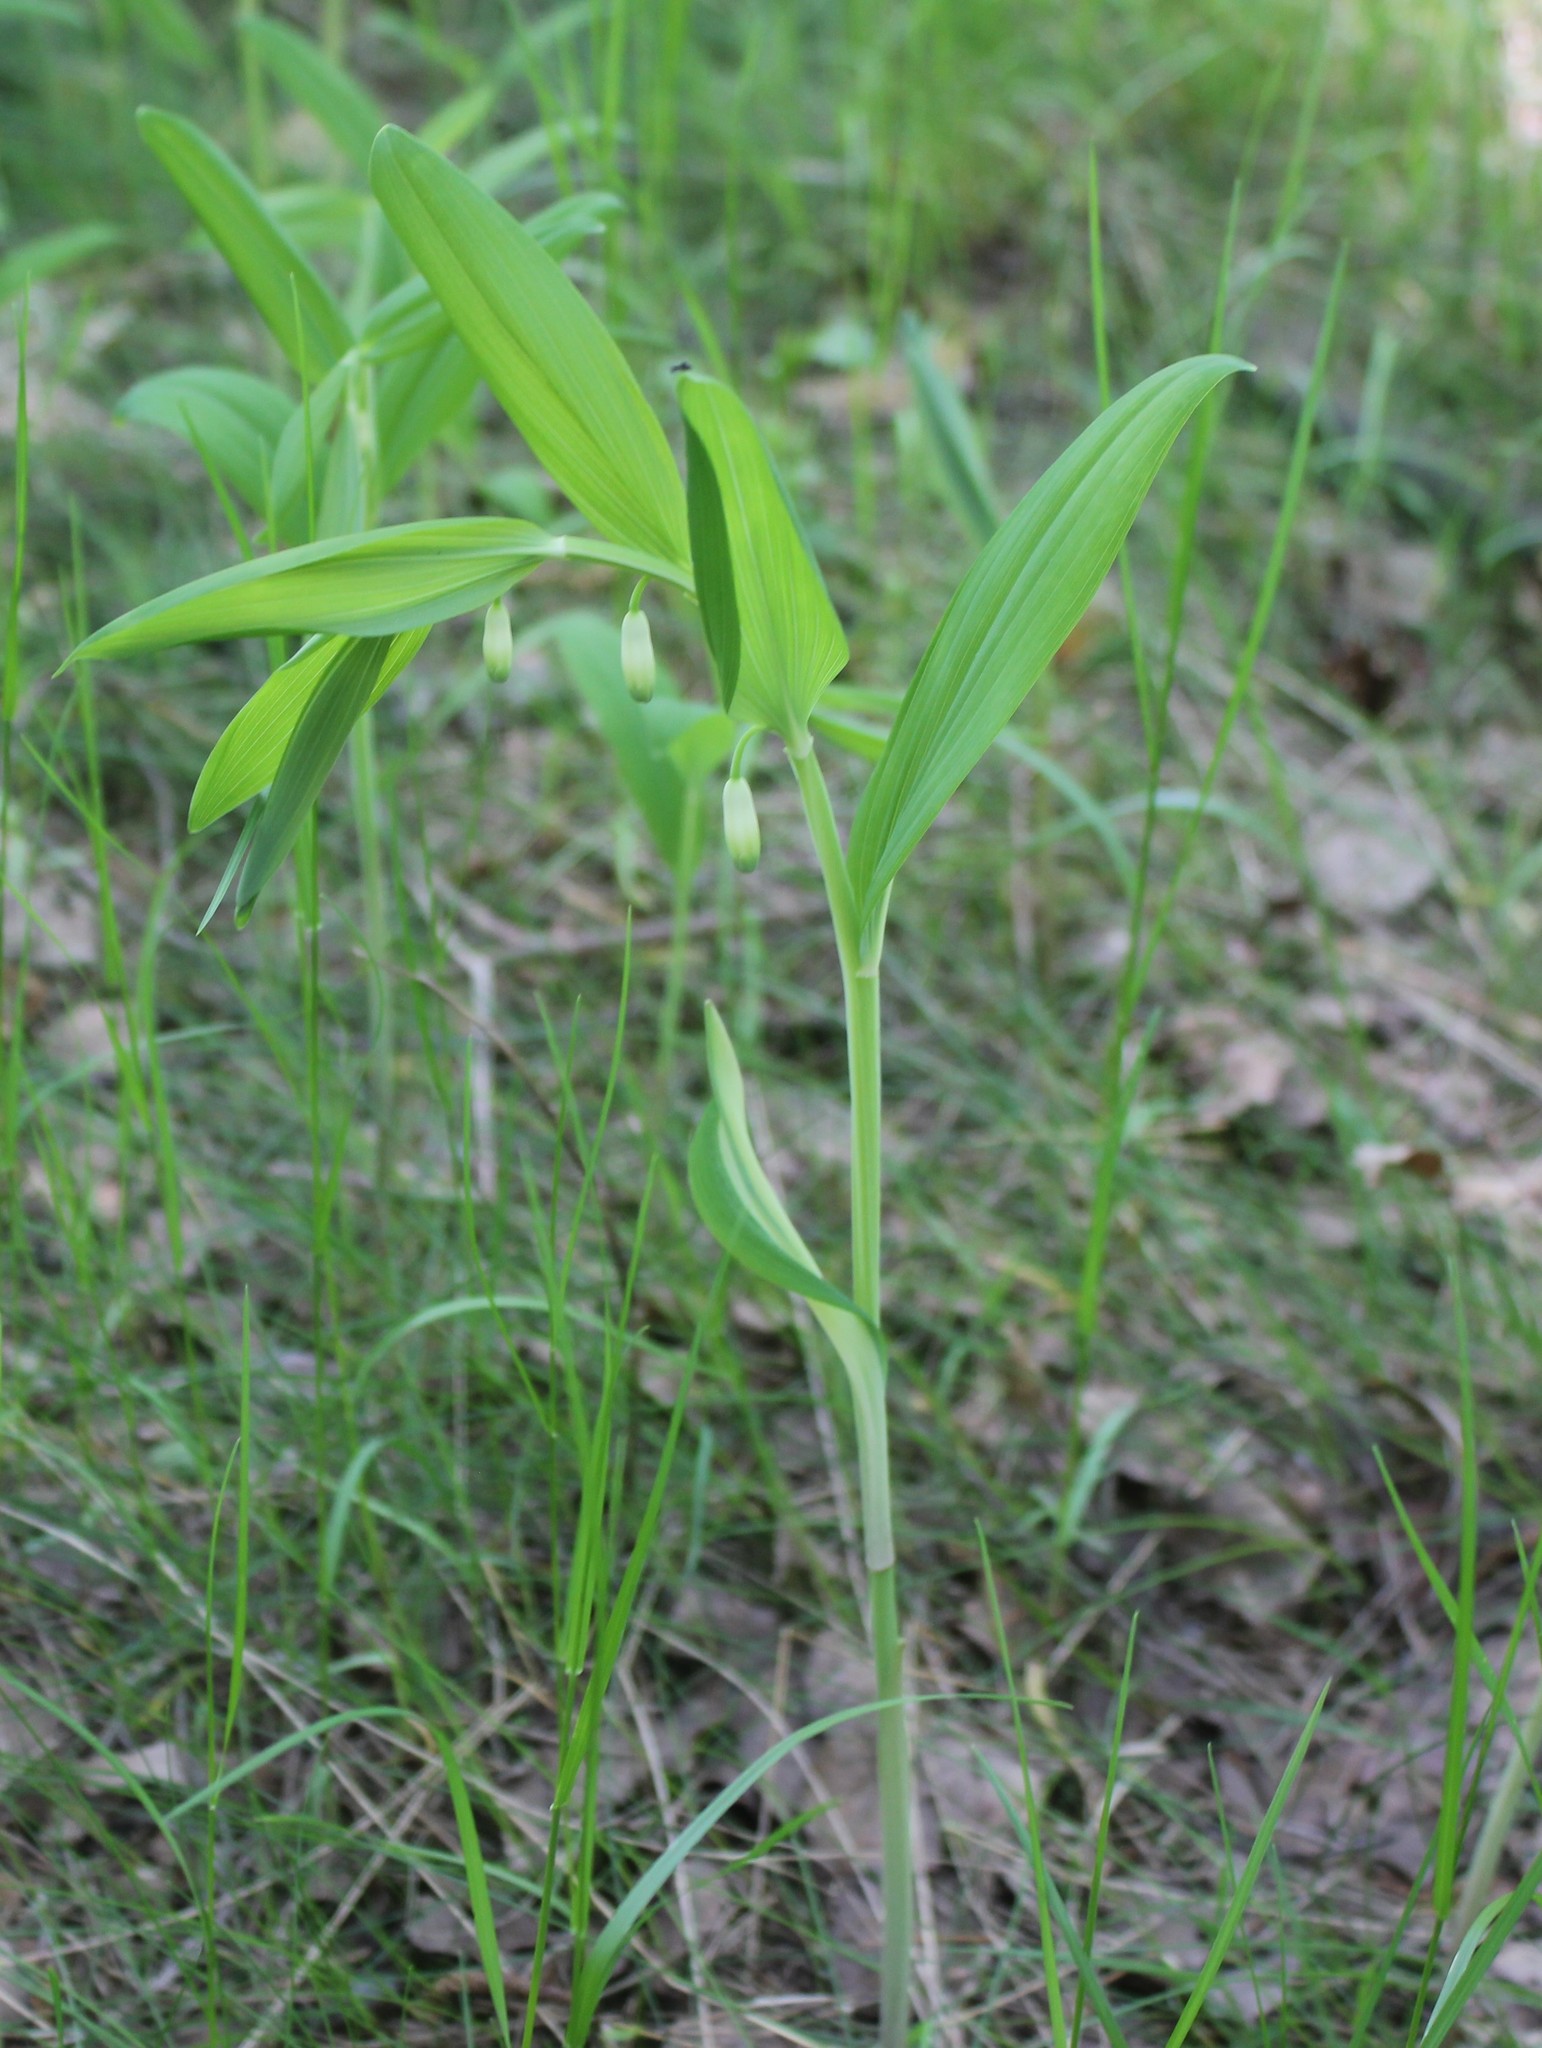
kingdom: Plantae
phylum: Tracheophyta
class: Liliopsida
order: Asparagales
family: Asparagaceae
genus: Polygonatum
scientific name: Polygonatum odoratum
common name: Angular solomon's-seal
